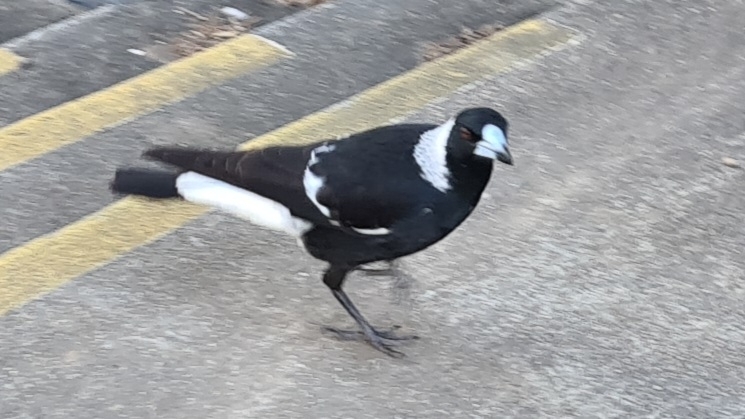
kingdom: Animalia
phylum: Chordata
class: Aves
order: Passeriformes
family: Cracticidae
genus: Gymnorhina
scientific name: Gymnorhina tibicen
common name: Australian magpie
